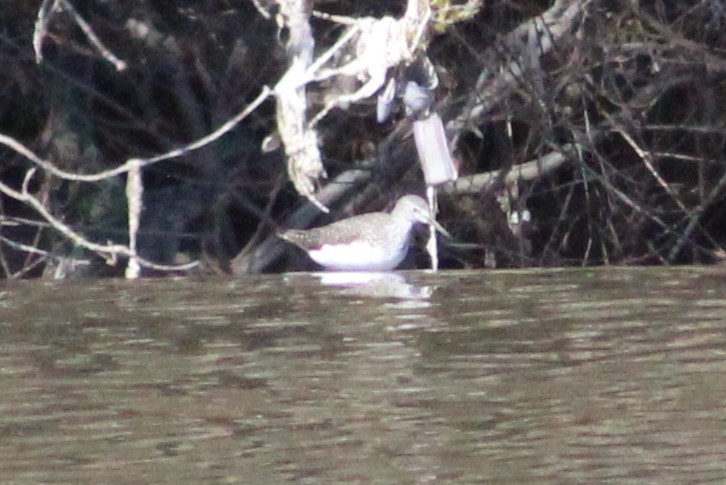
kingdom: Animalia
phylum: Chordata
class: Aves
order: Charadriiformes
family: Scolopacidae
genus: Tringa
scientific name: Tringa ochropus
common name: Green sandpiper
